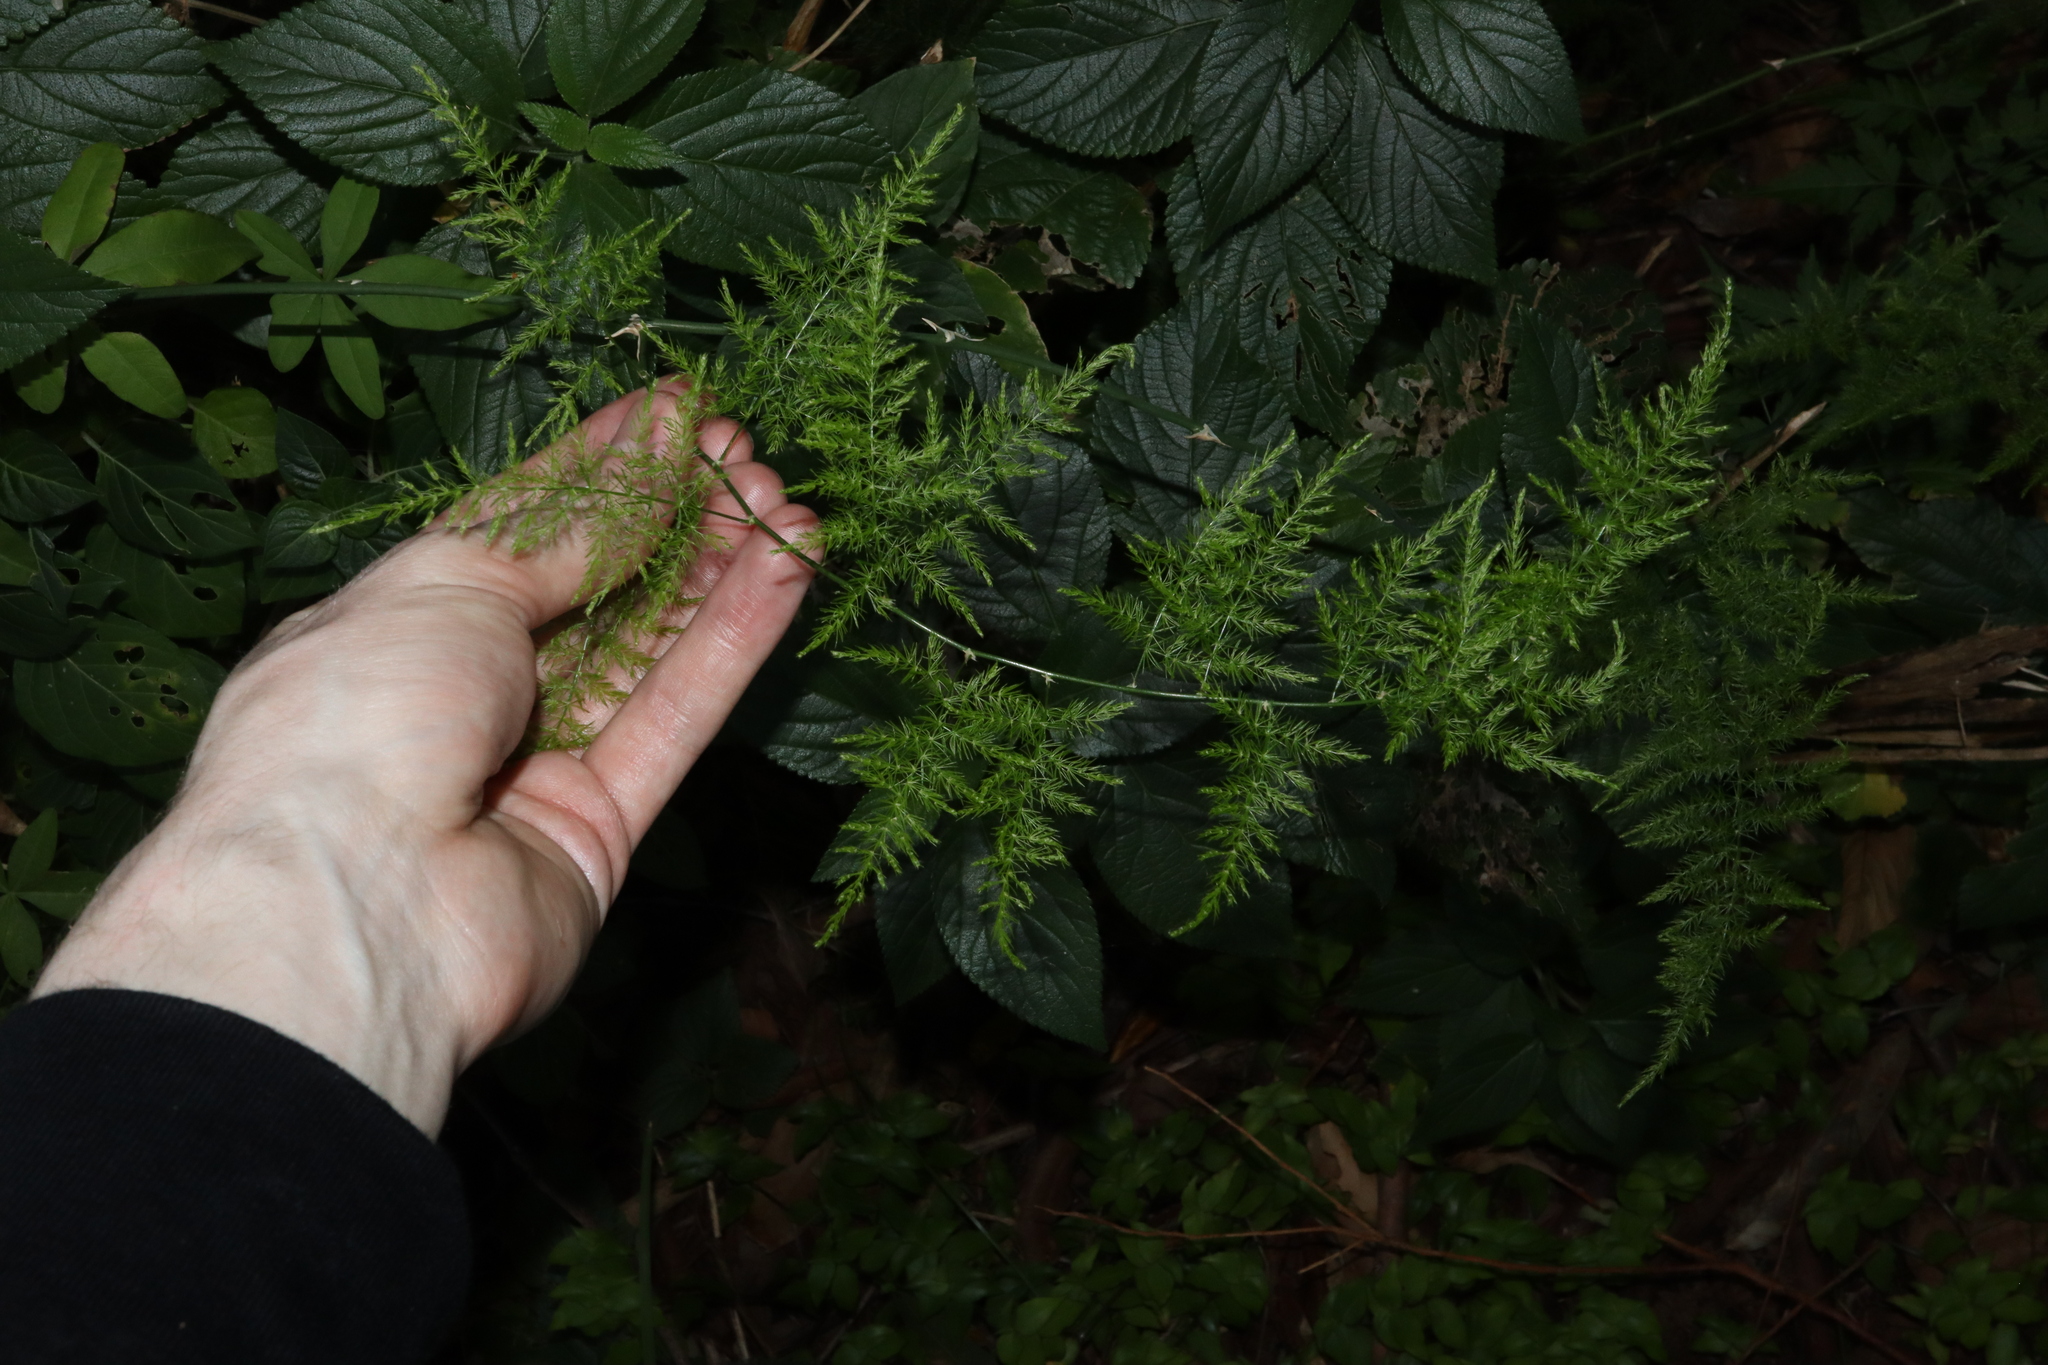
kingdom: Plantae
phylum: Tracheophyta
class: Liliopsida
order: Asparagales
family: Asparagaceae
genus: Asparagus
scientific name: Asparagus setaceus
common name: Common asparagus fern
